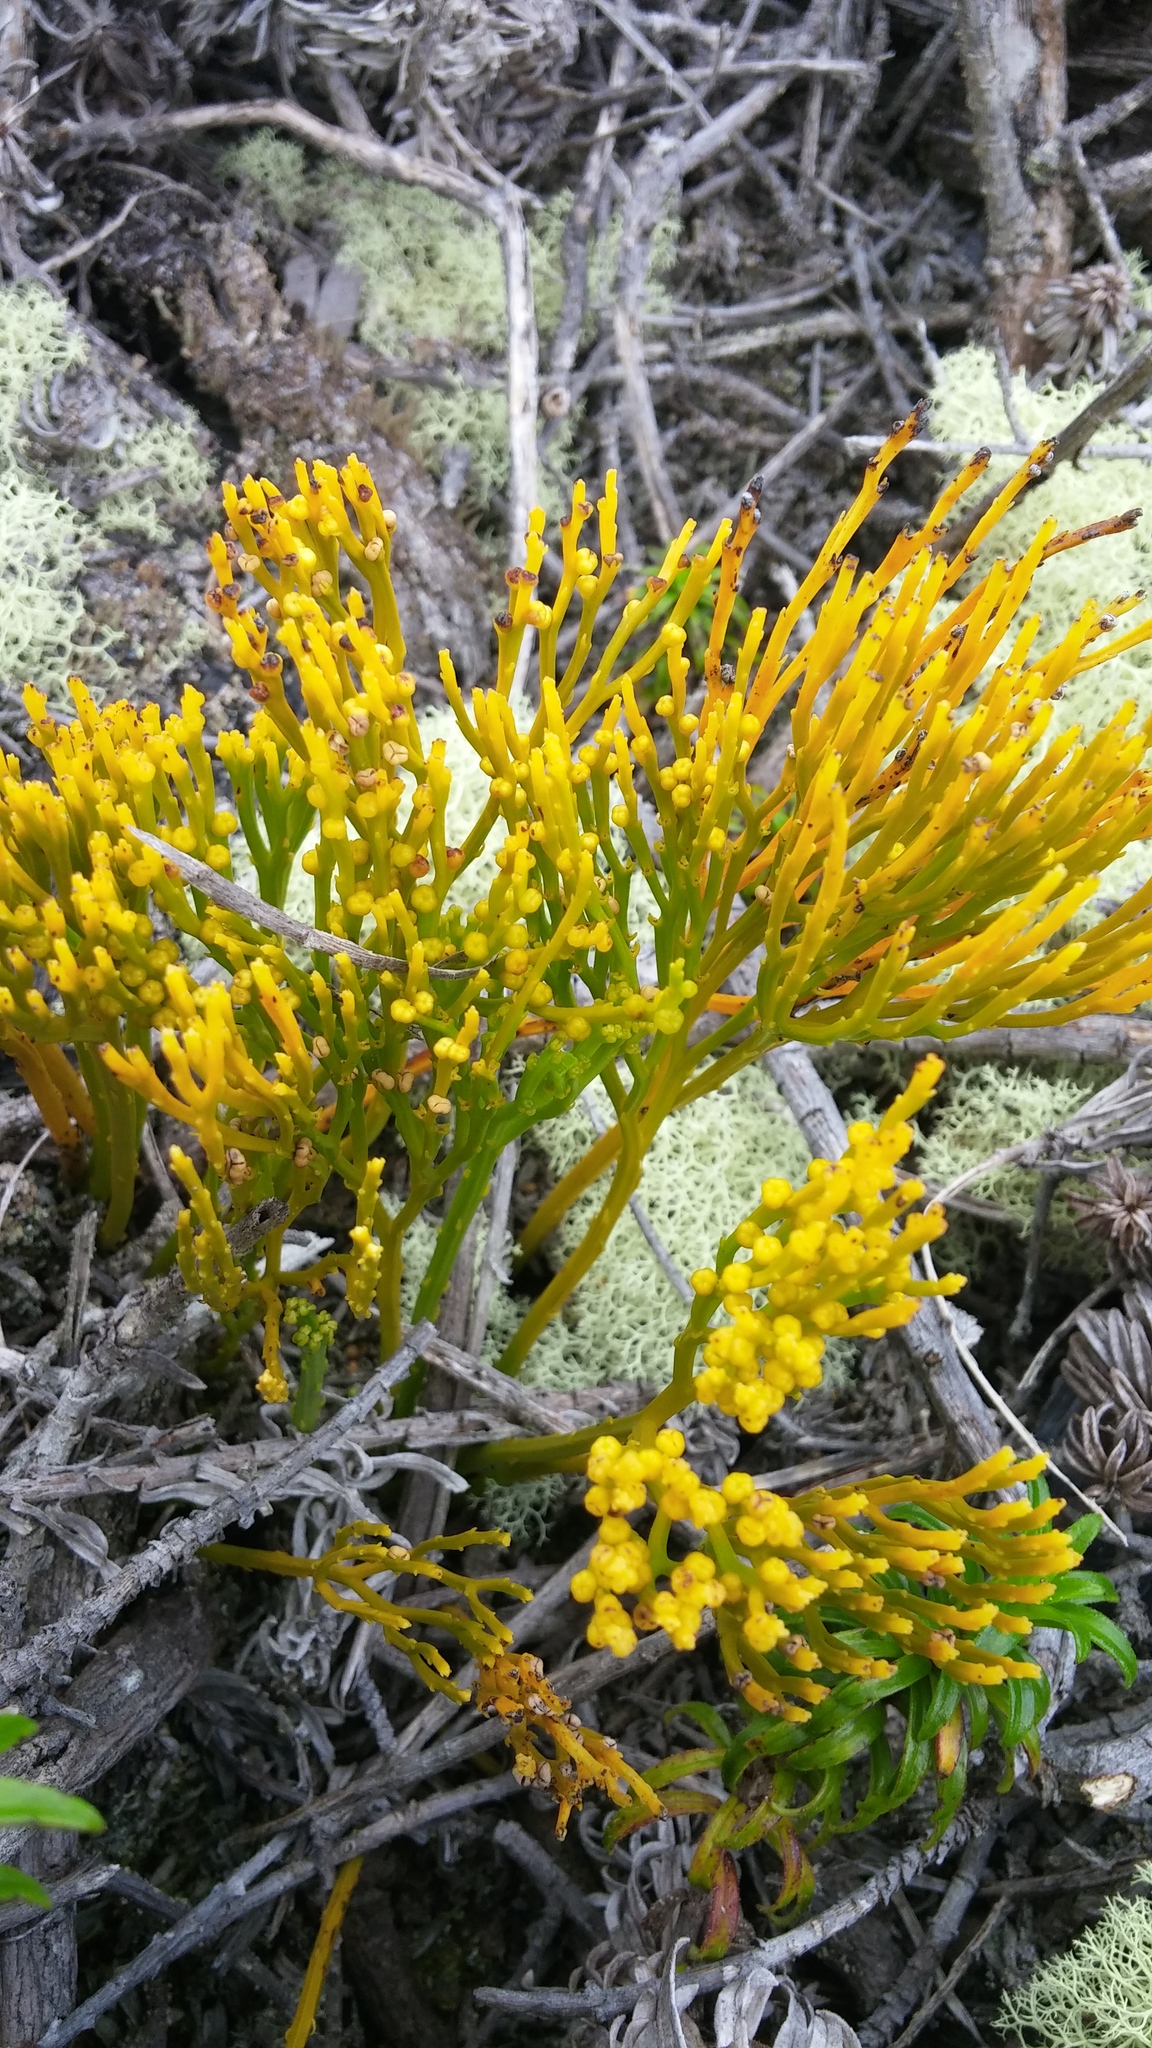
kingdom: Plantae
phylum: Tracheophyta
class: Polypodiopsida
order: Psilotales
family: Psilotaceae
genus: Psilotum
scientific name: Psilotum nudum
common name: Skeleton fork fern
